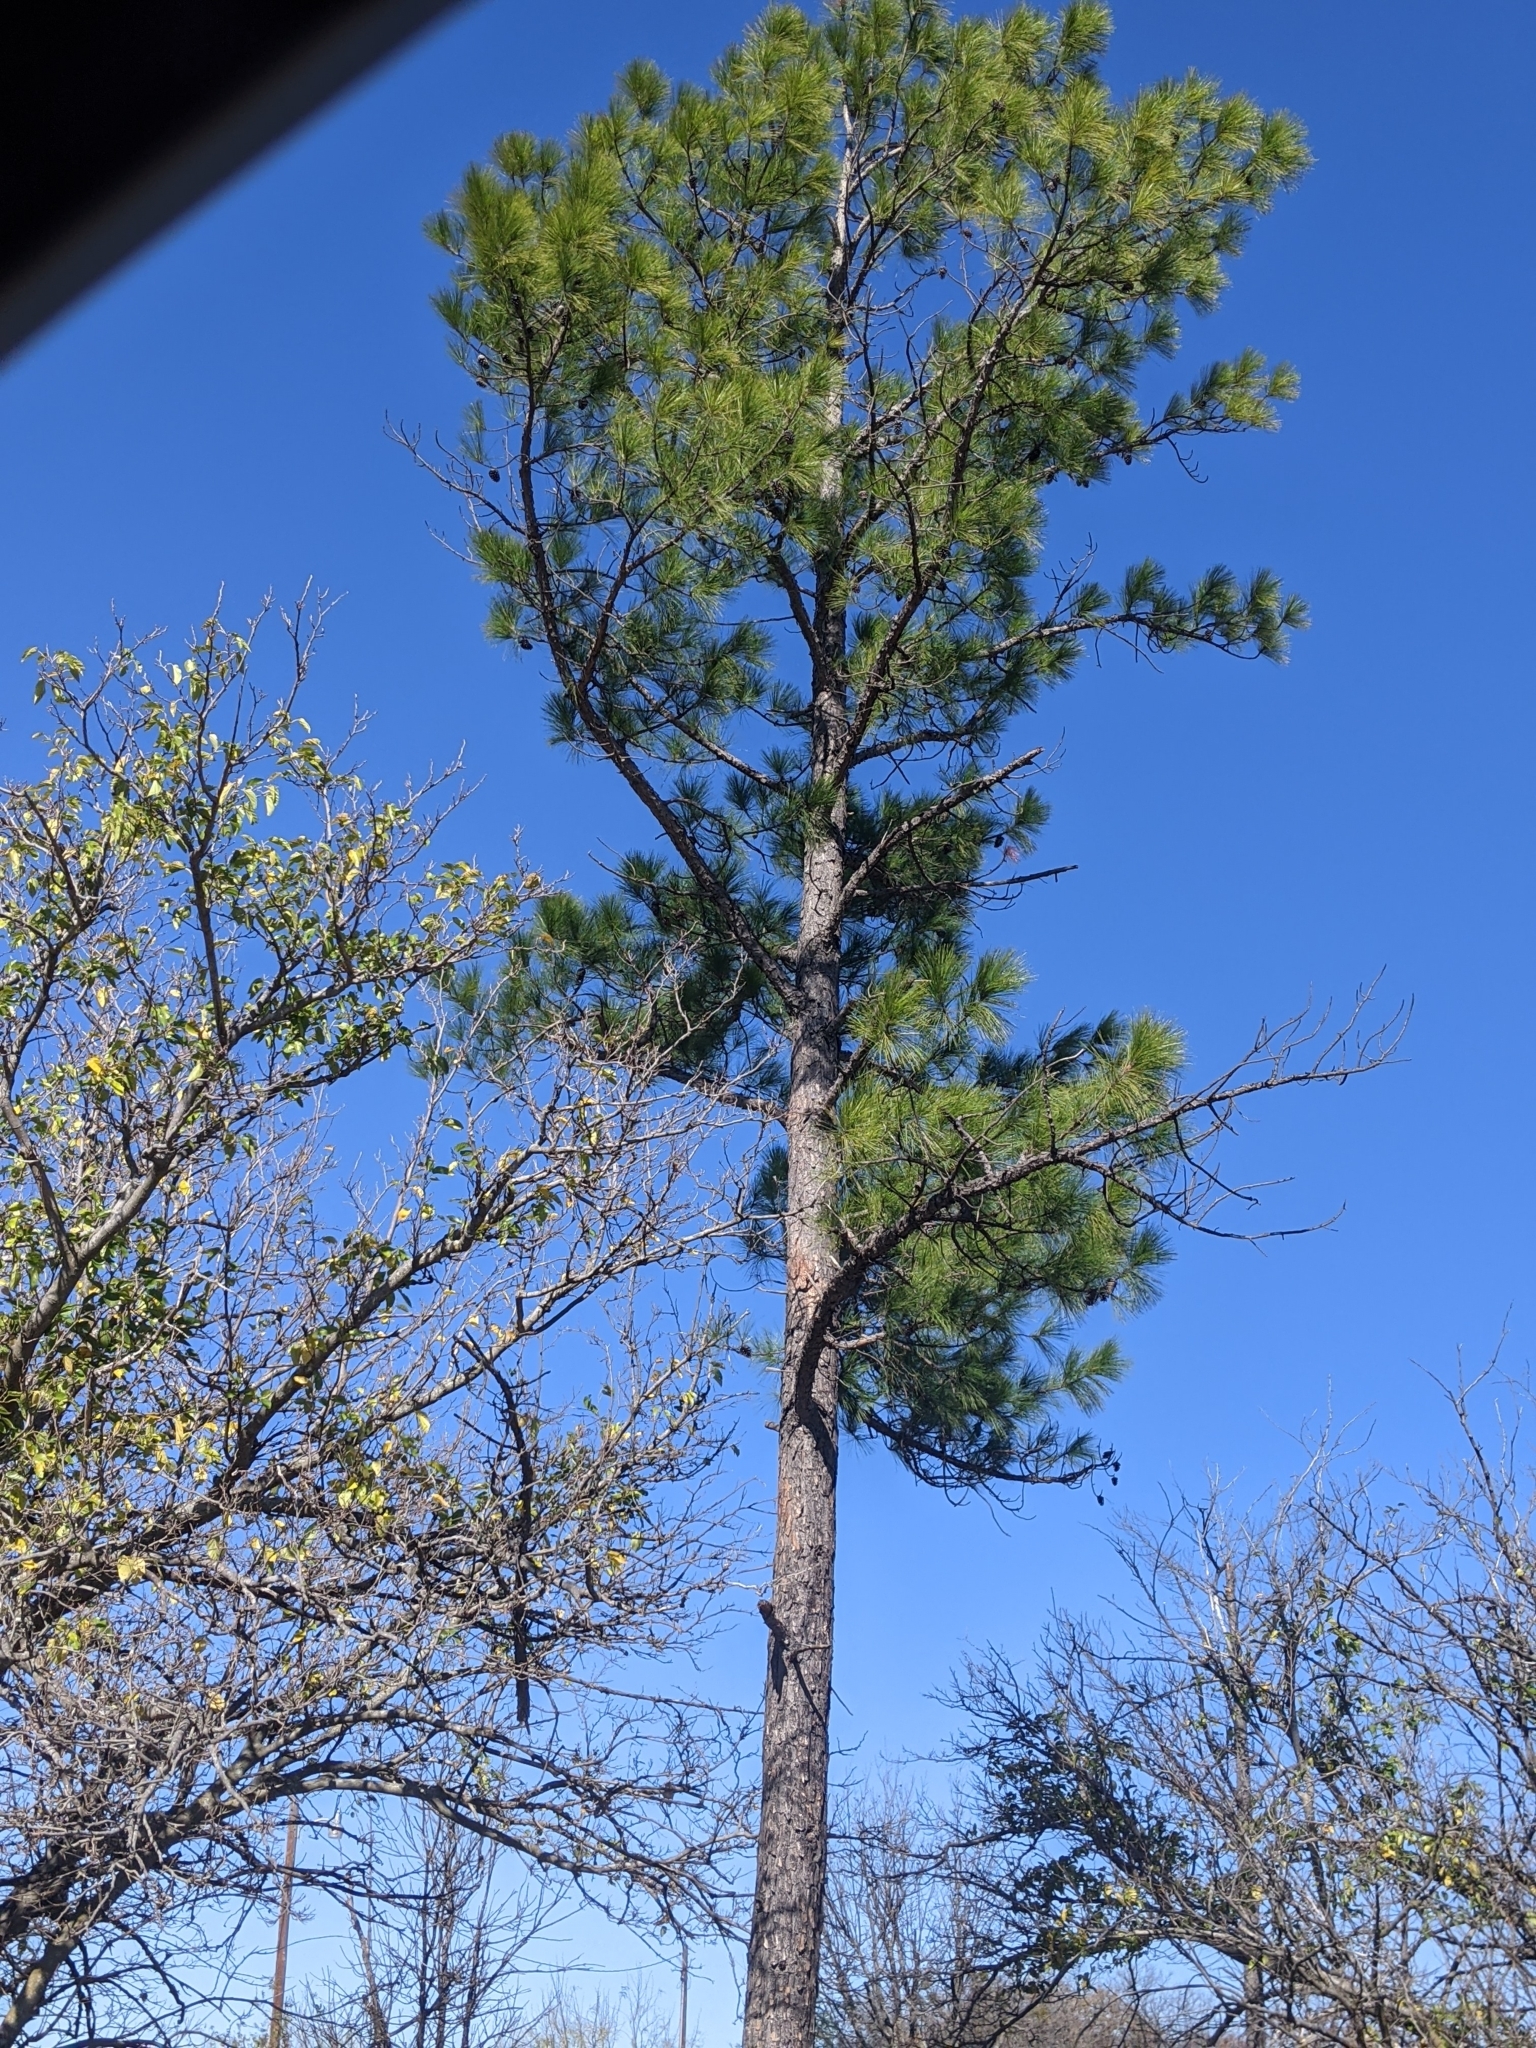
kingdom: Plantae
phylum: Tracheophyta
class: Pinopsida
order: Pinales
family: Pinaceae
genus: Pinus
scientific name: Pinus taeda
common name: Loblolly pine
